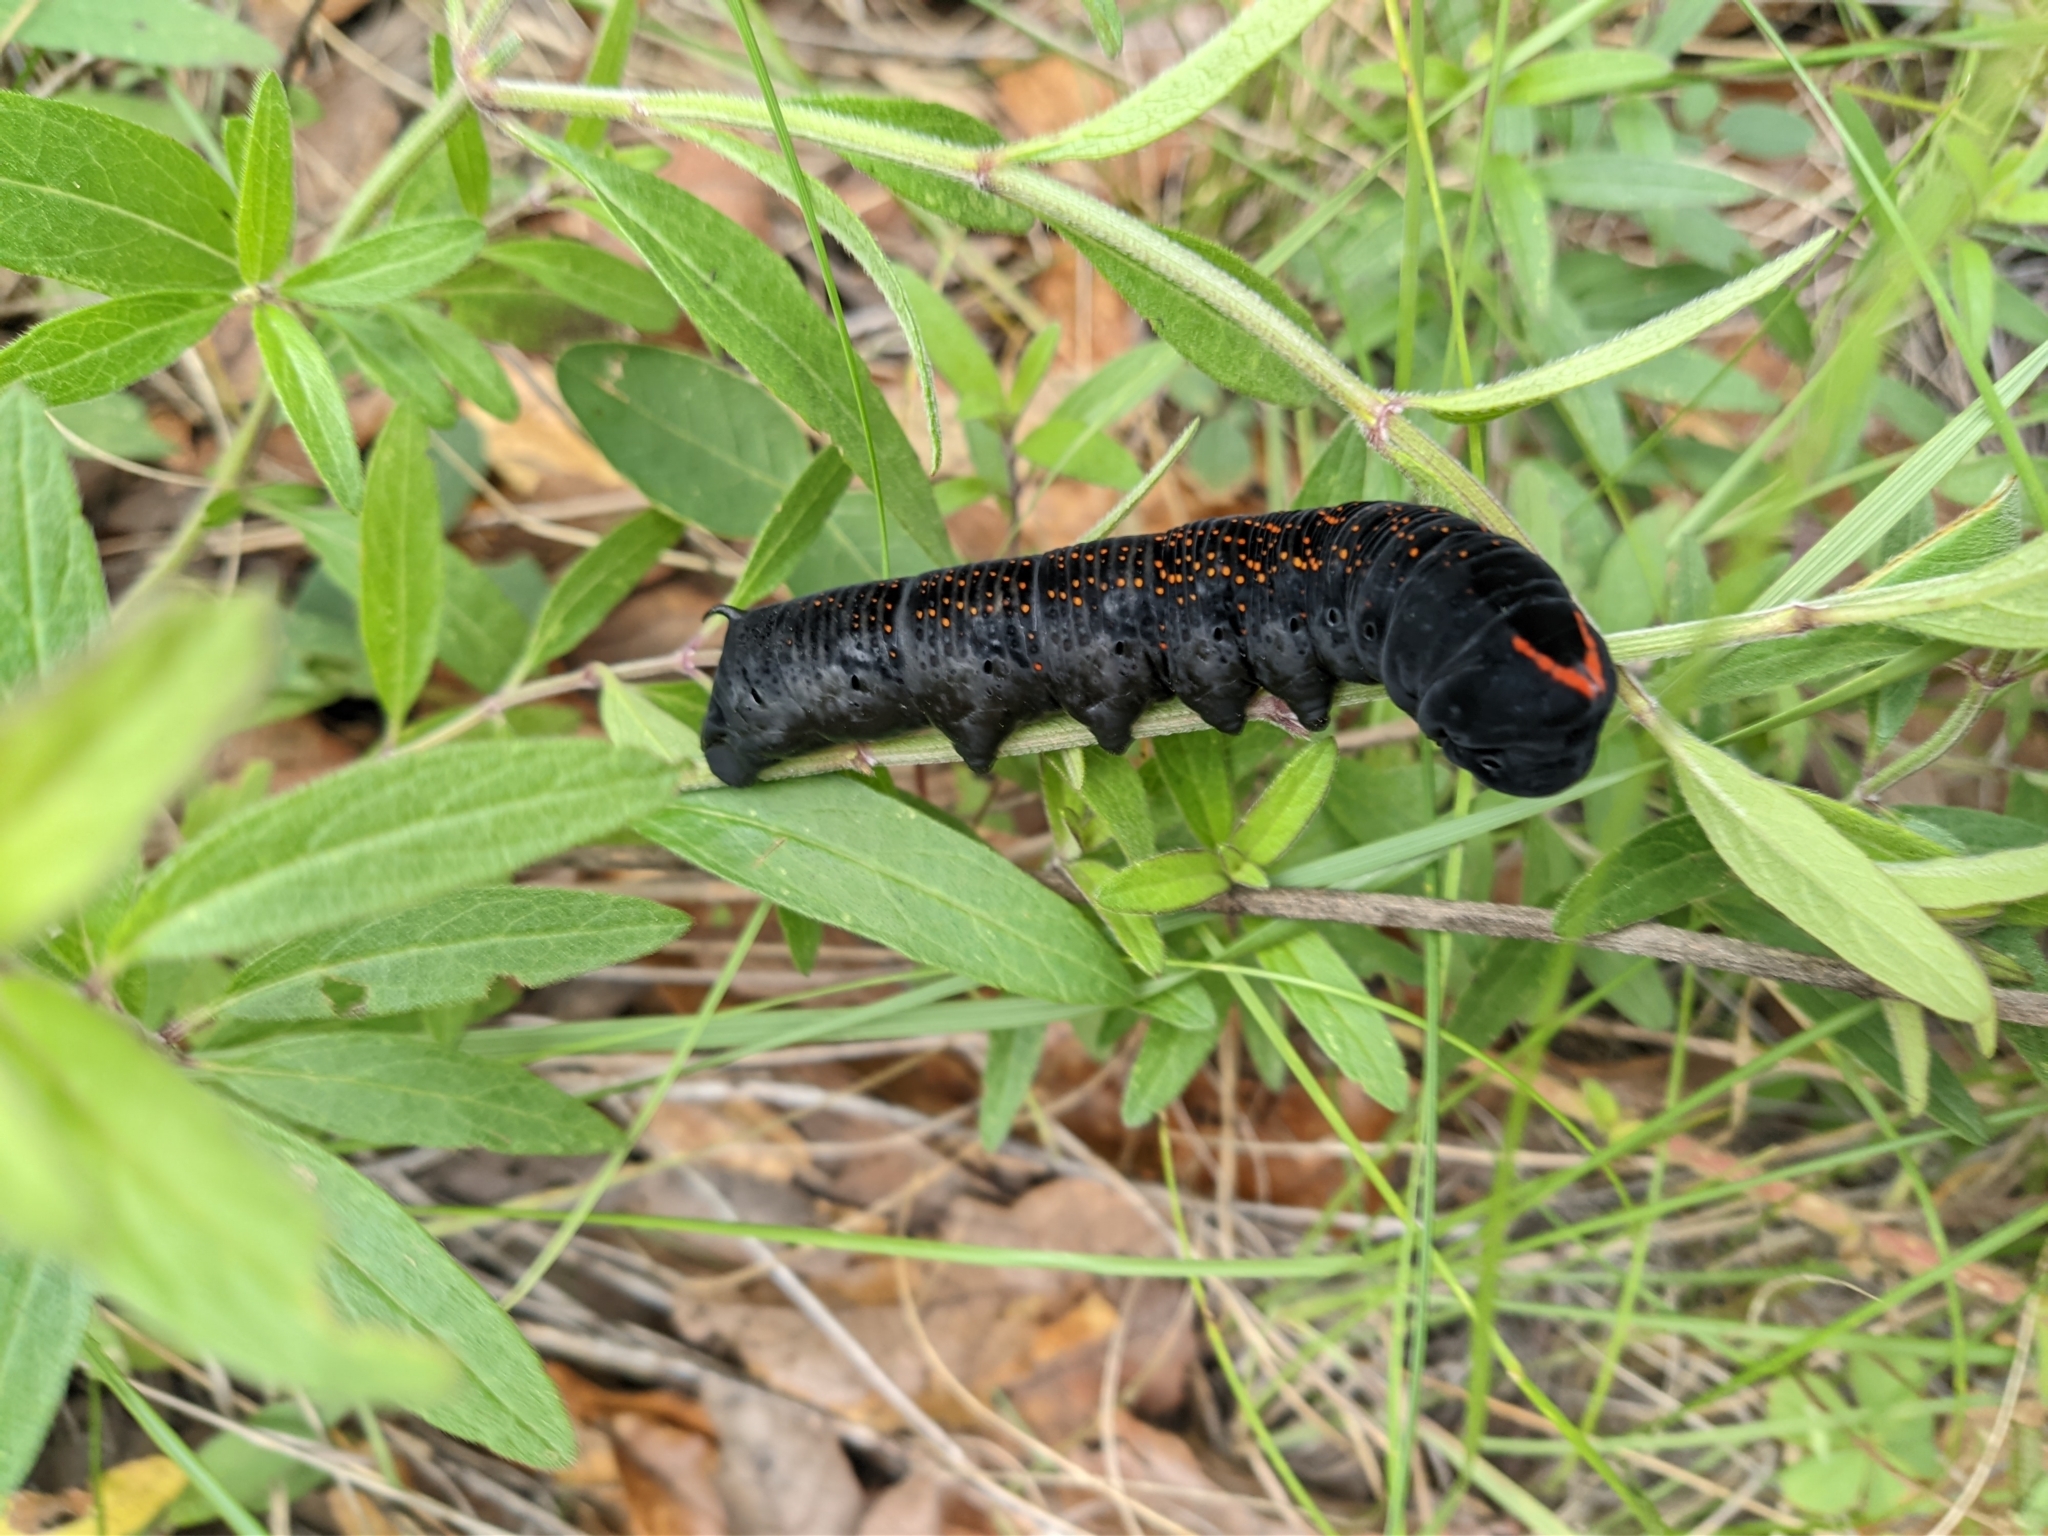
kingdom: Animalia
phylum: Arthropoda
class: Insecta
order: Lepidoptera
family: Sphingidae
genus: Lintneria
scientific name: Lintneria separatus
